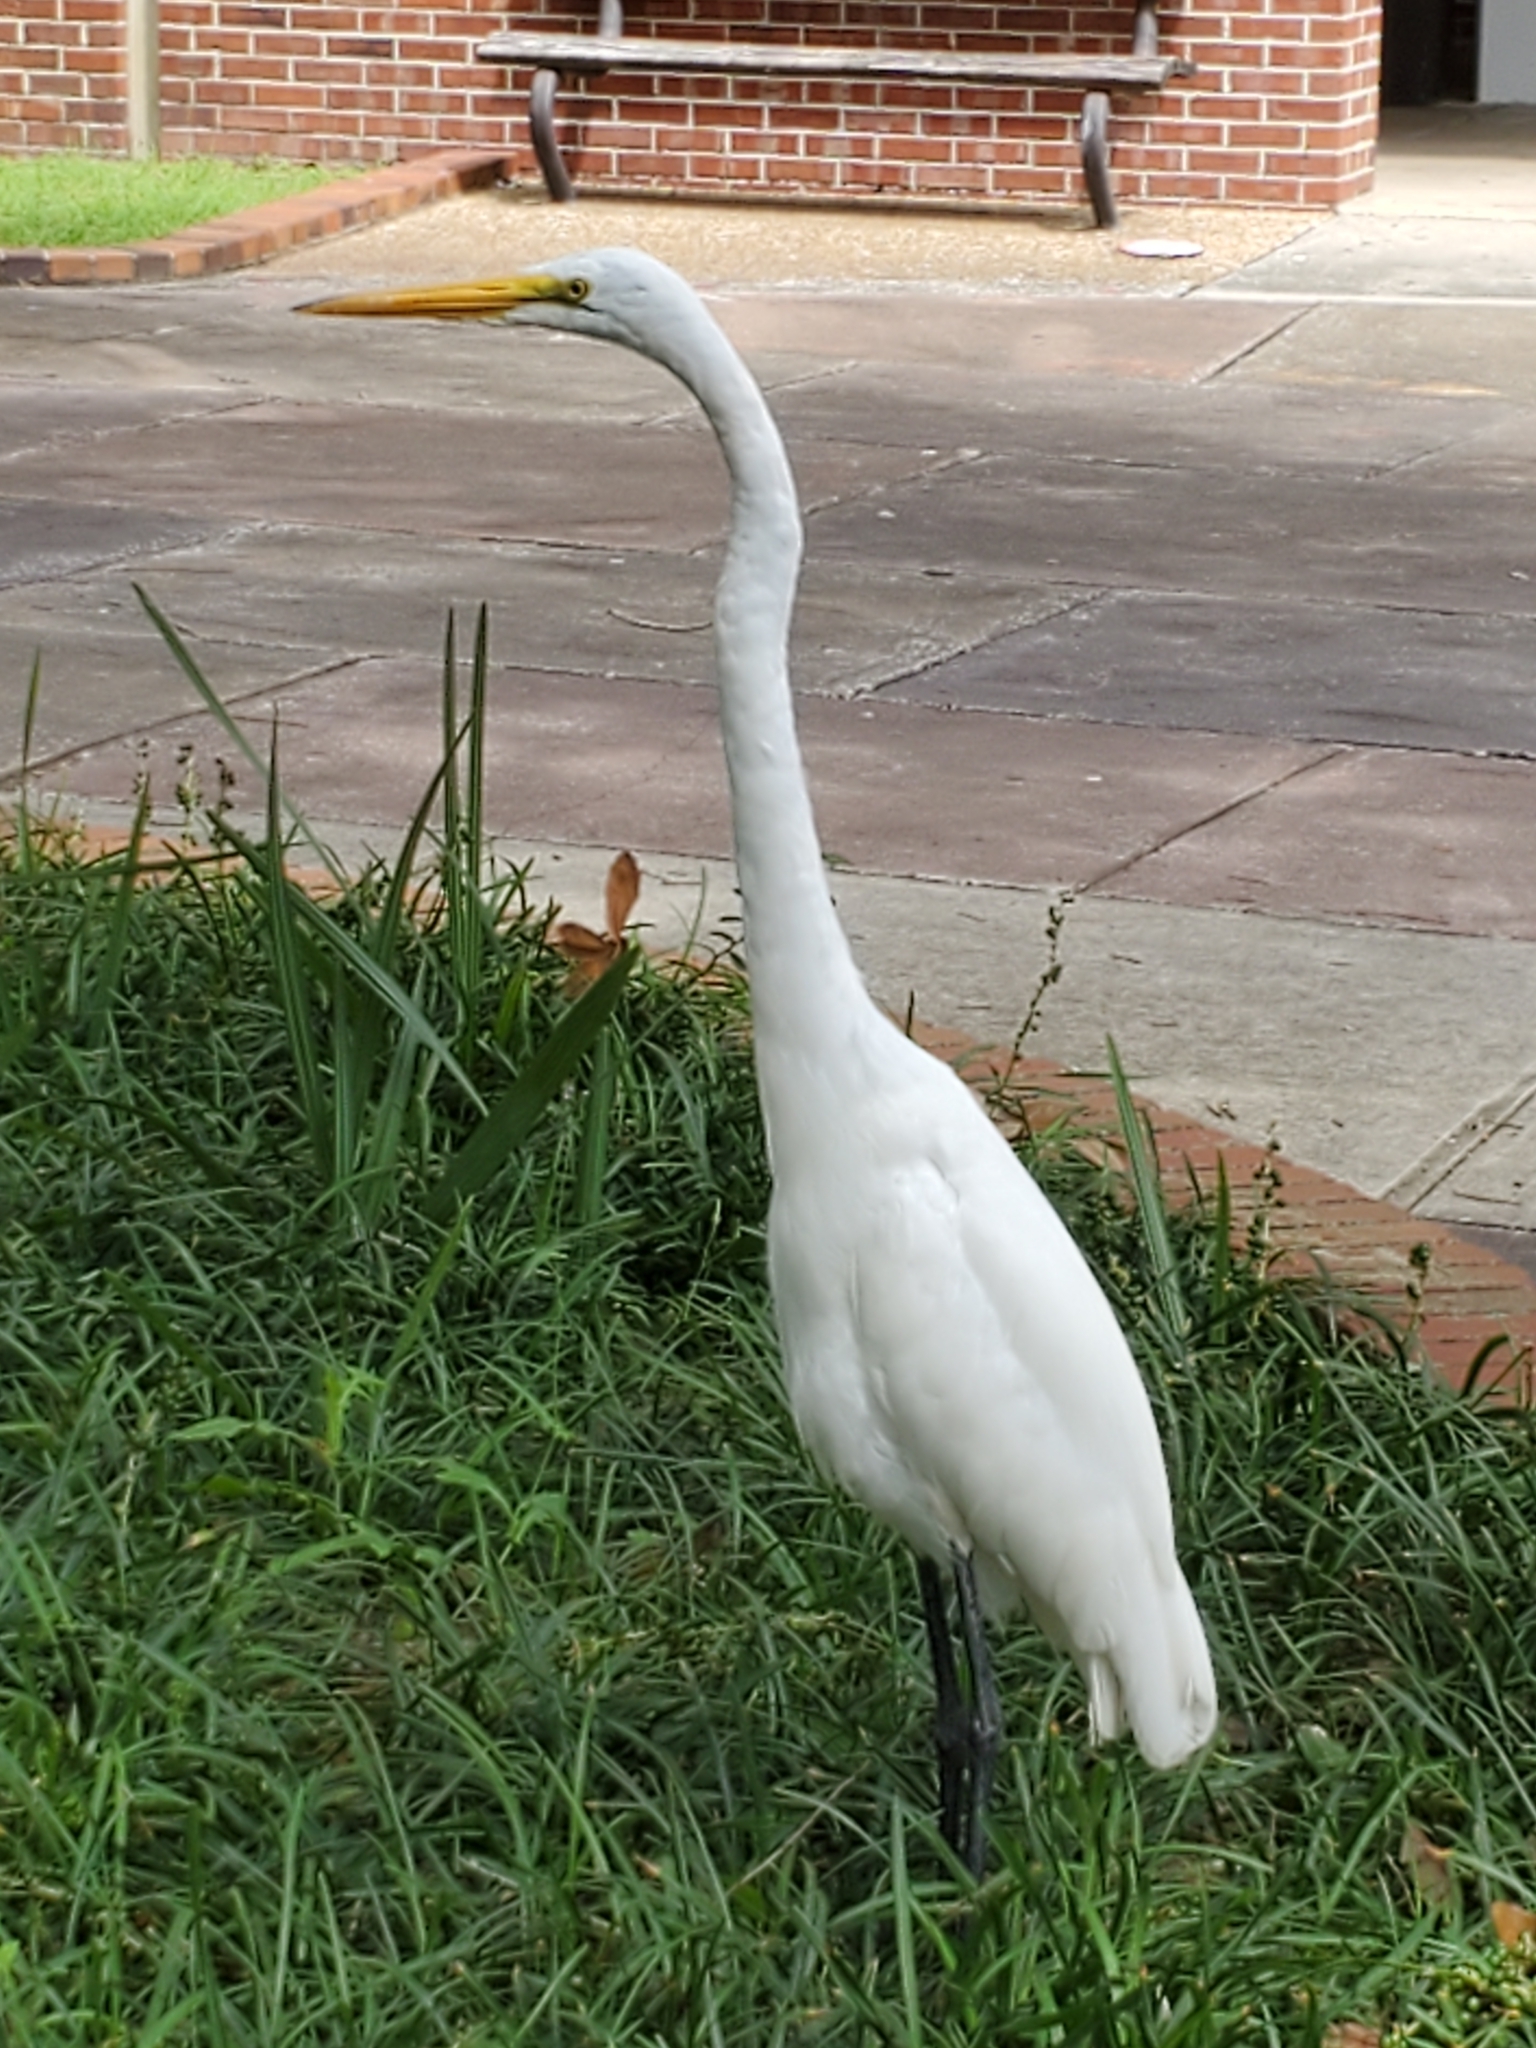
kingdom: Animalia
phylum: Chordata
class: Aves
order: Pelecaniformes
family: Ardeidae
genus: Ardea
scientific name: Ardea alba
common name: Great egret
